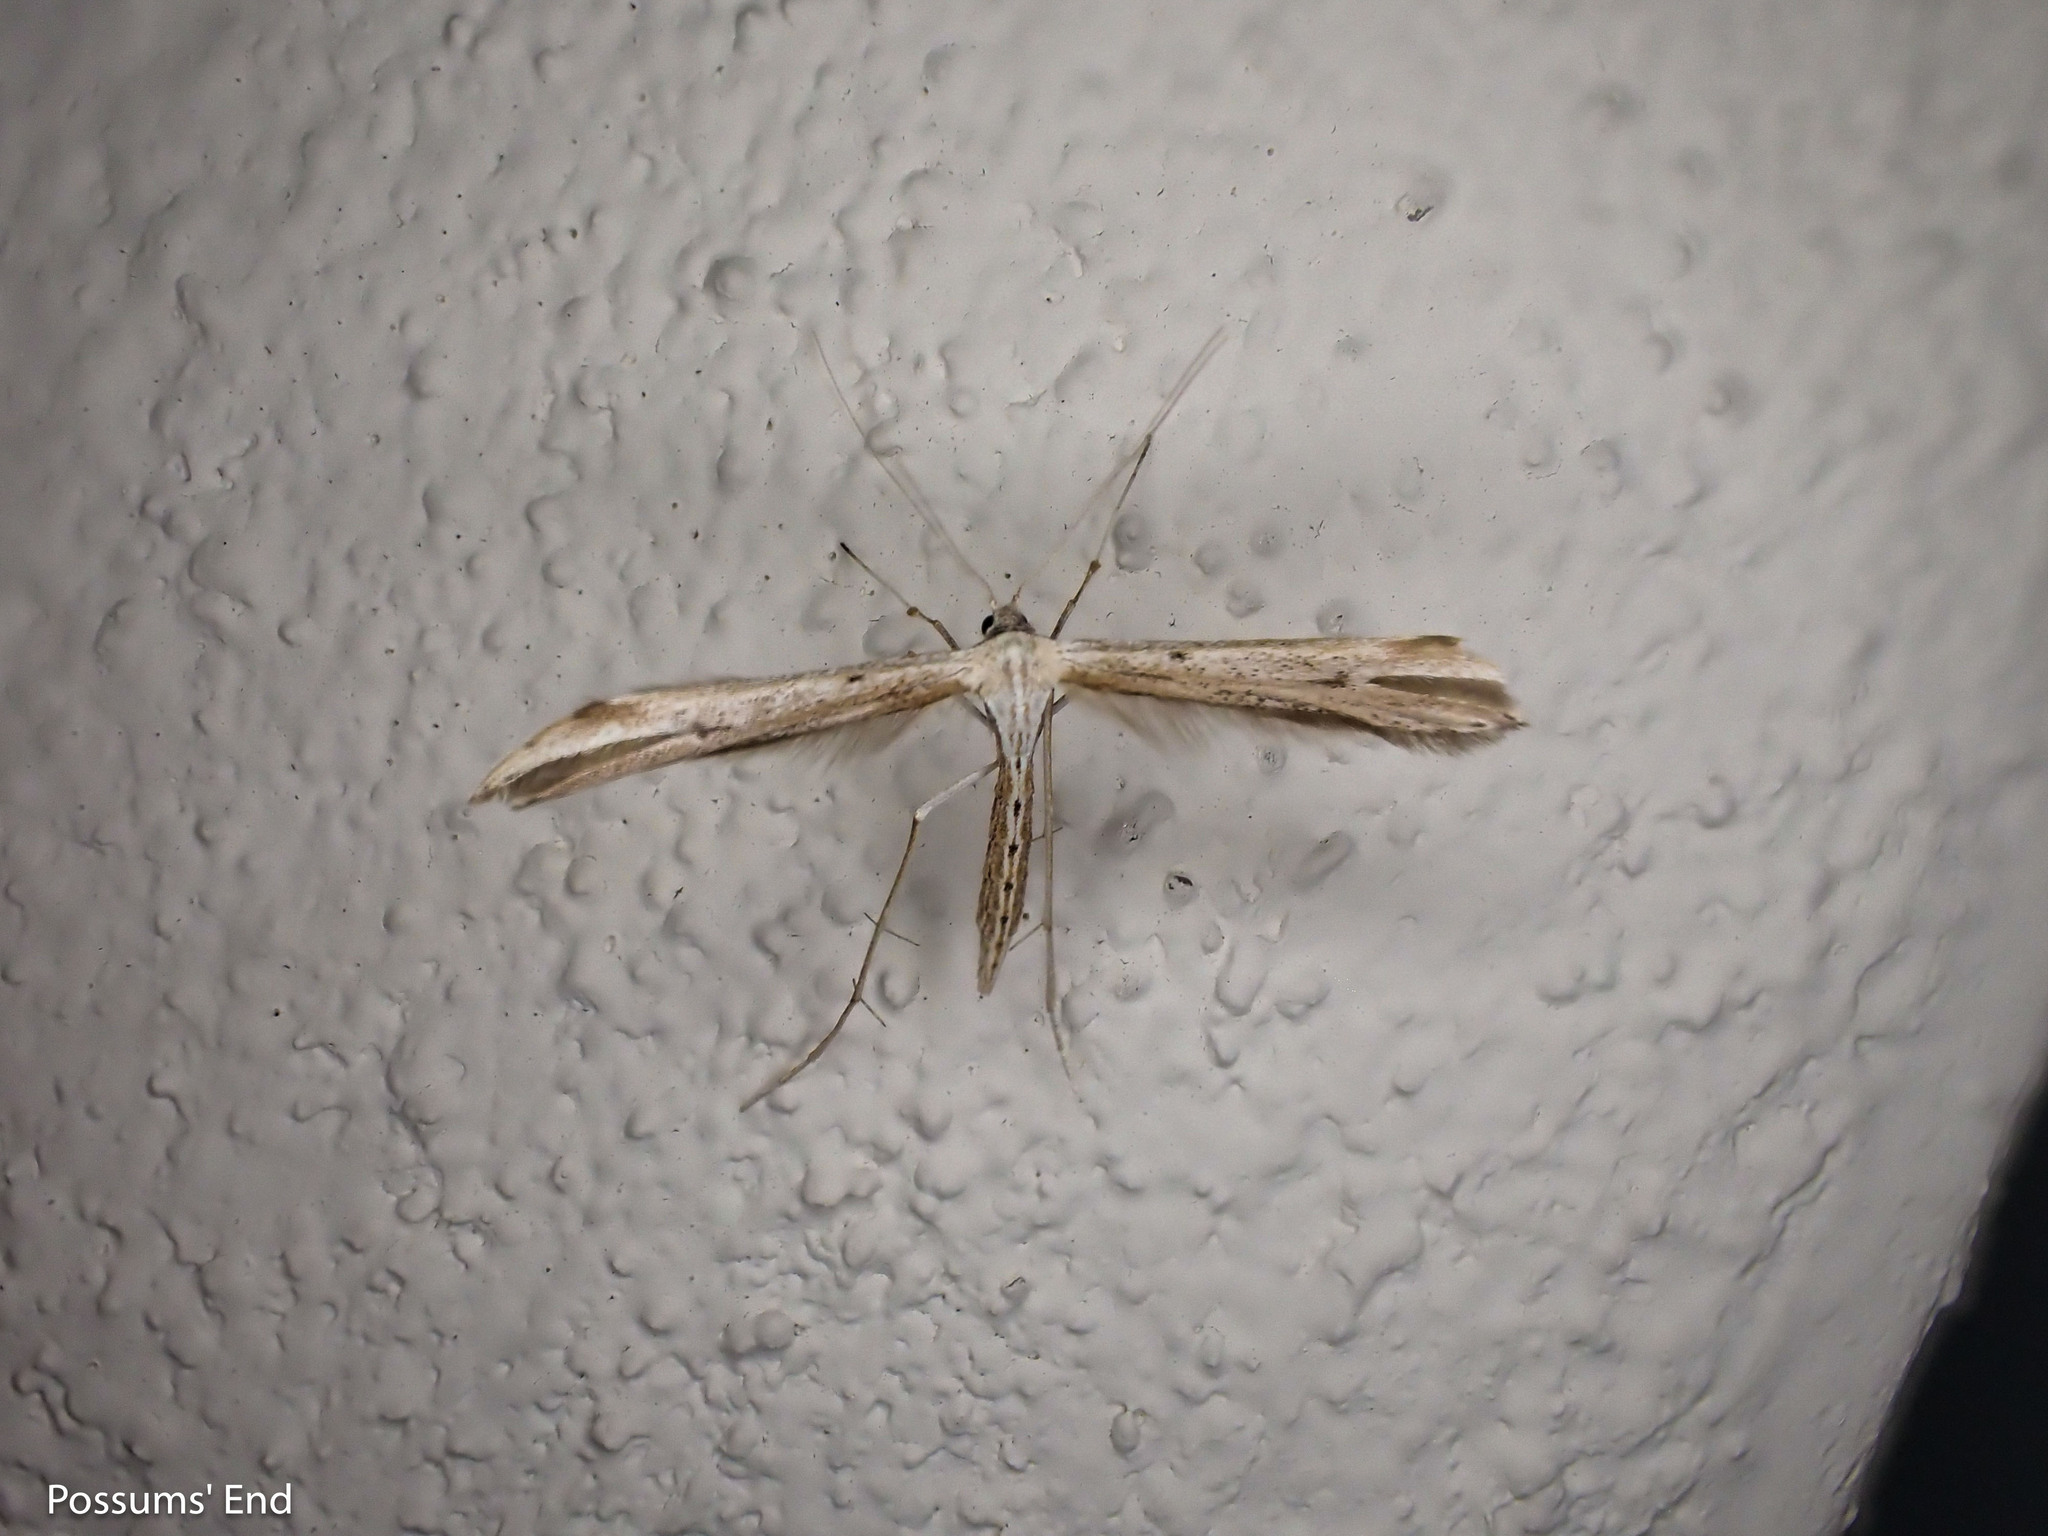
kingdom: Animalia
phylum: Arthropoda
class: Insecta
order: Lepidoptera
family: Pterophoridae
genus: Emmelina
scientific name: Emmelina monodactyla
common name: Common plume
